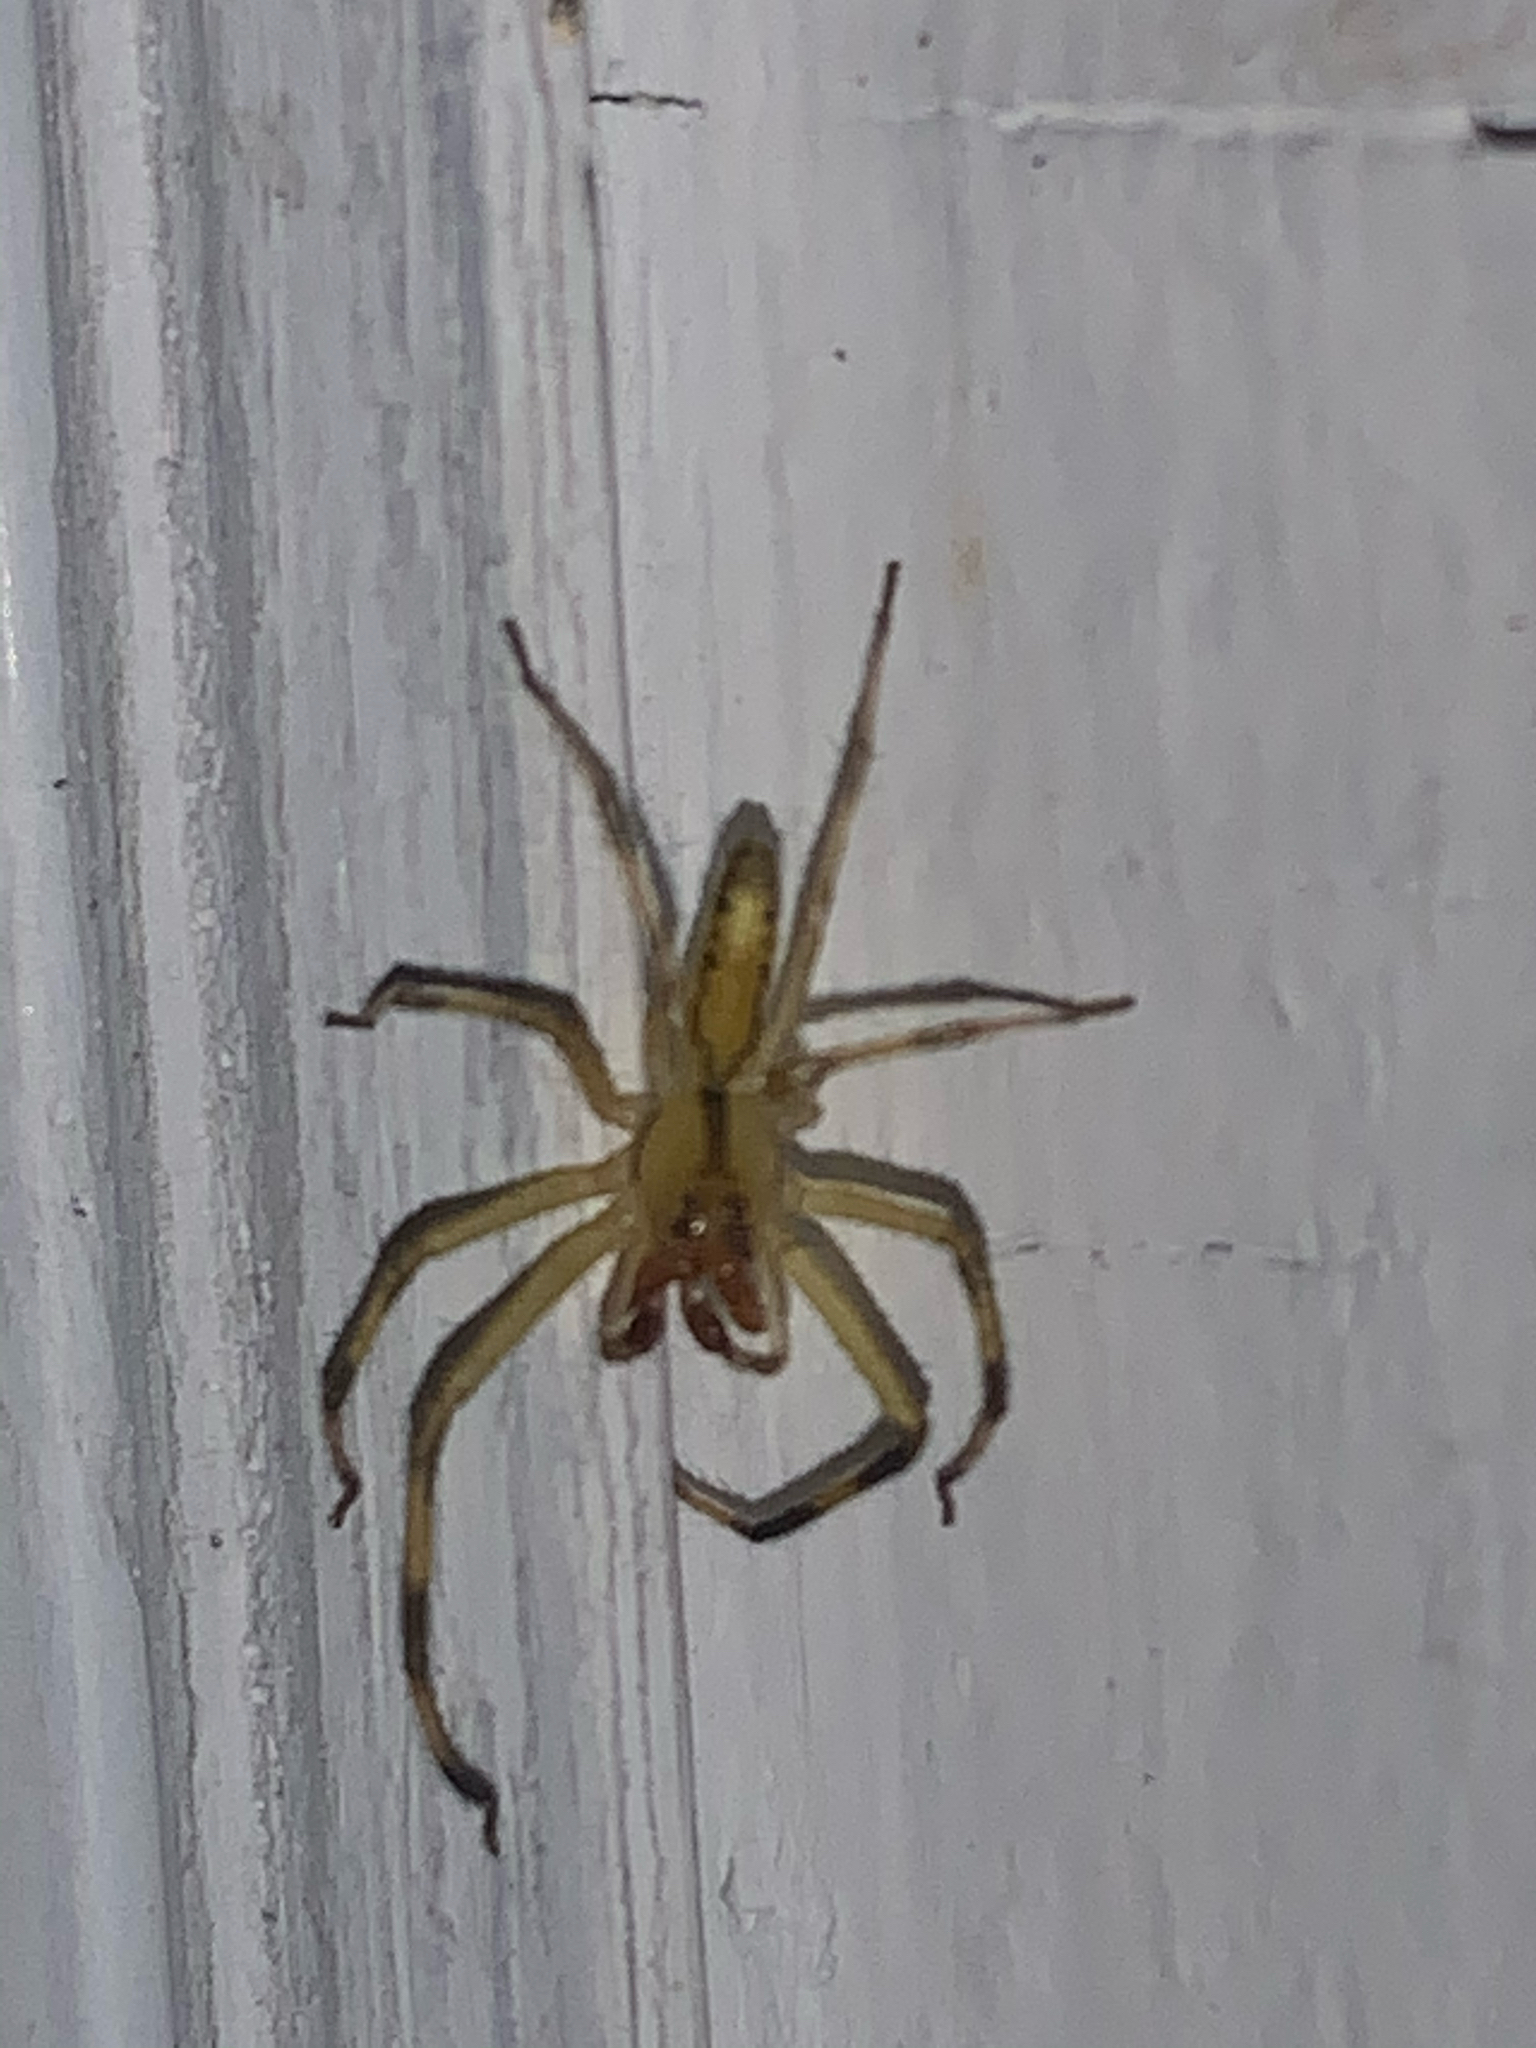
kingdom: Animalia
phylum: Arthropoda
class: Arachnida
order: Araneae
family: Salticidae
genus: Lyssomanes
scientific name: Lyssomanes viridis
